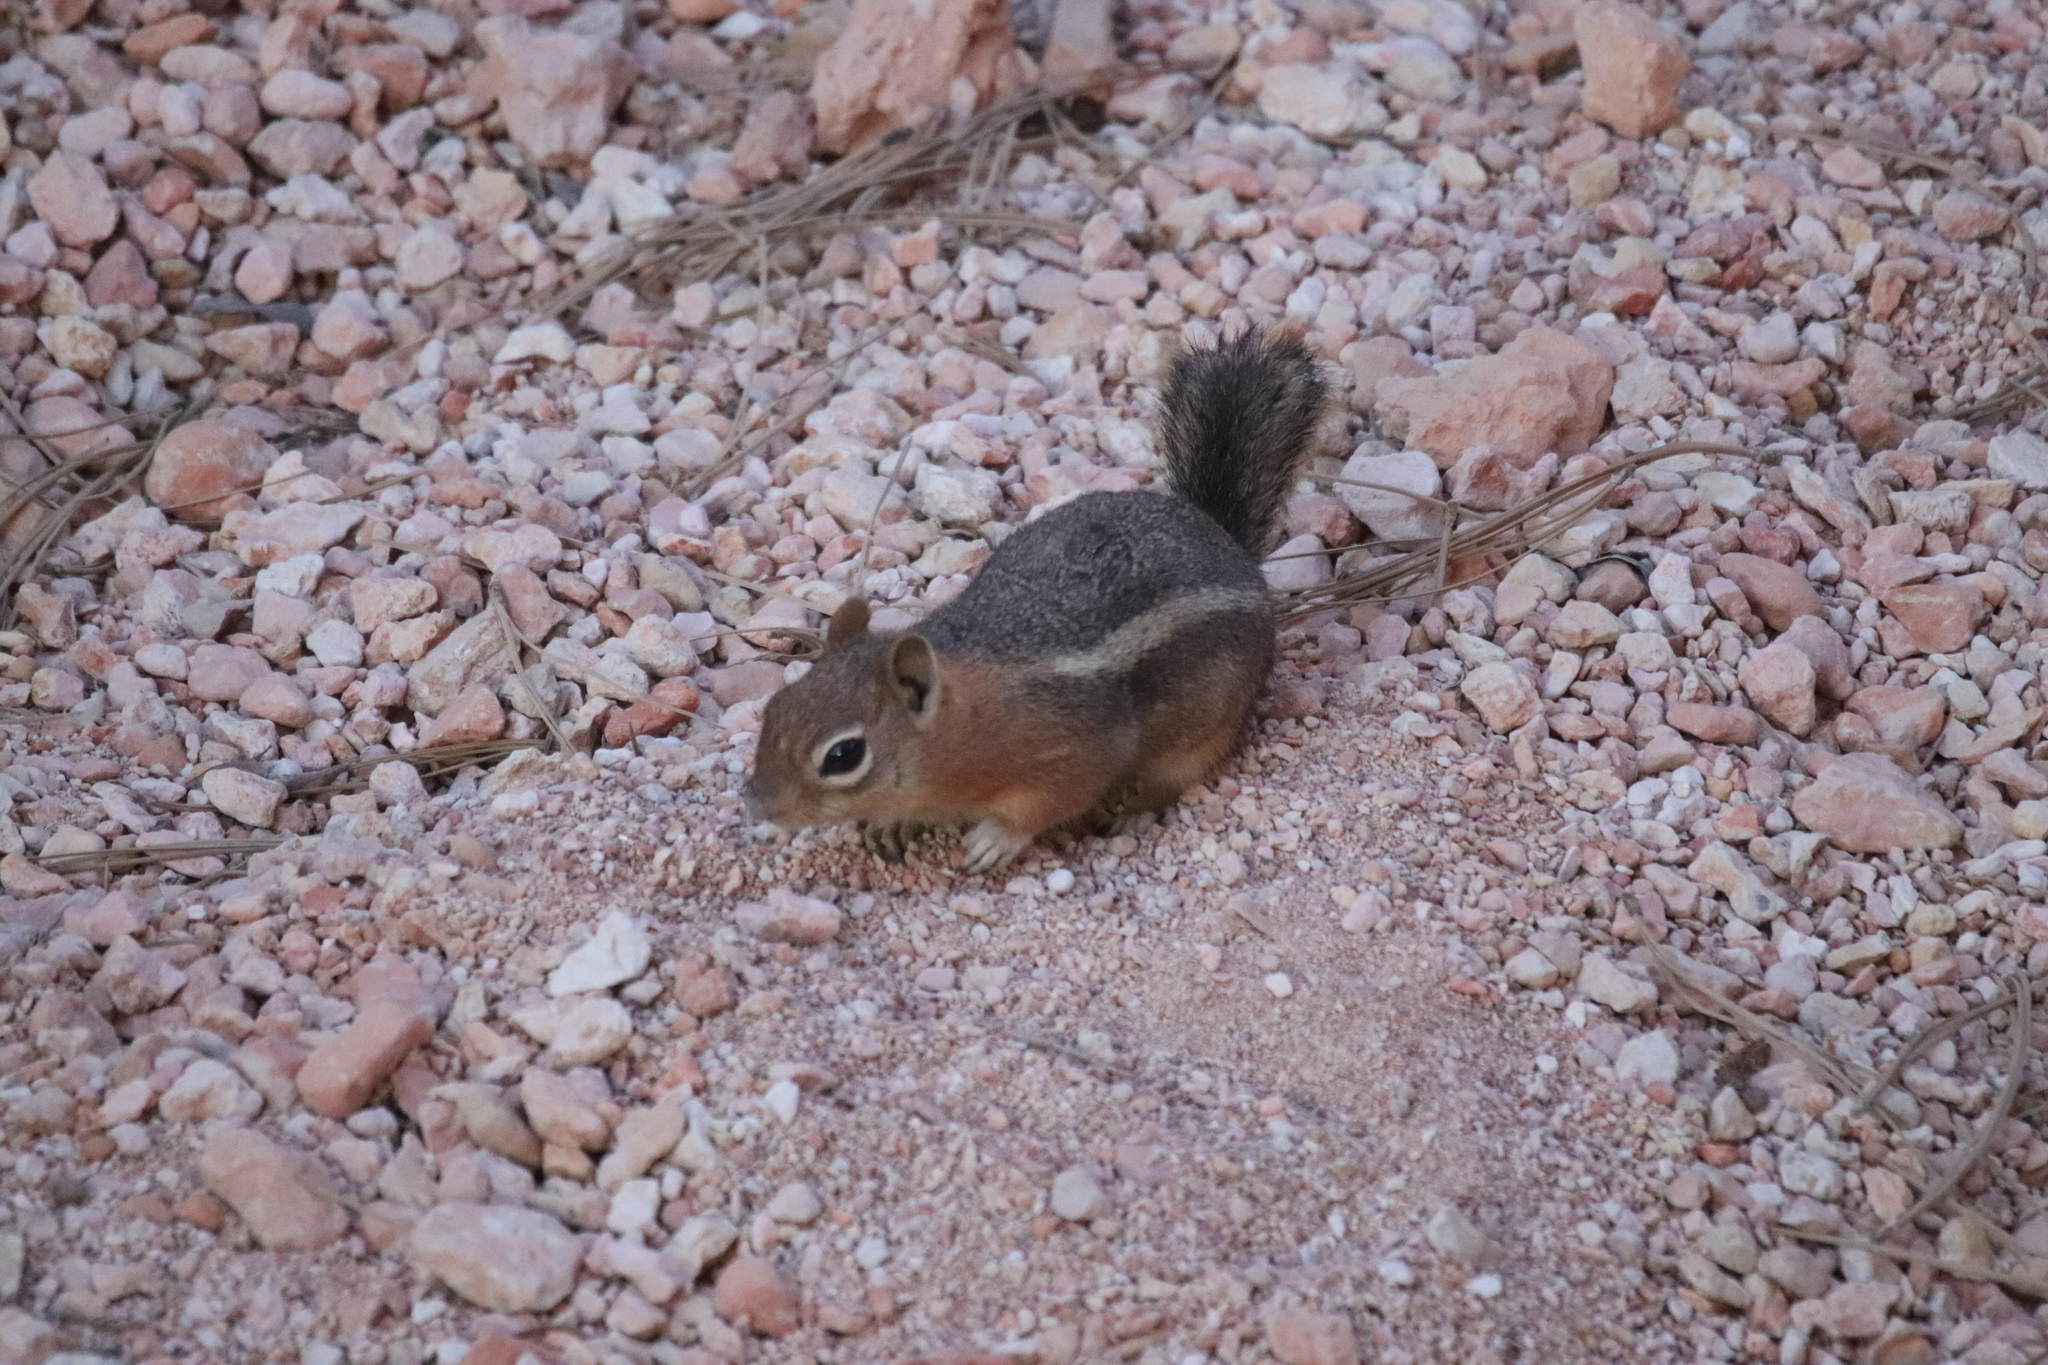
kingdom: Animalia
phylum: Chordata
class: Mammalia
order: Rodentia
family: Sciuridae
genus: Callospermophilus
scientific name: Callospermophilus lateralis
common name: Golden-mantled ground squirrel
